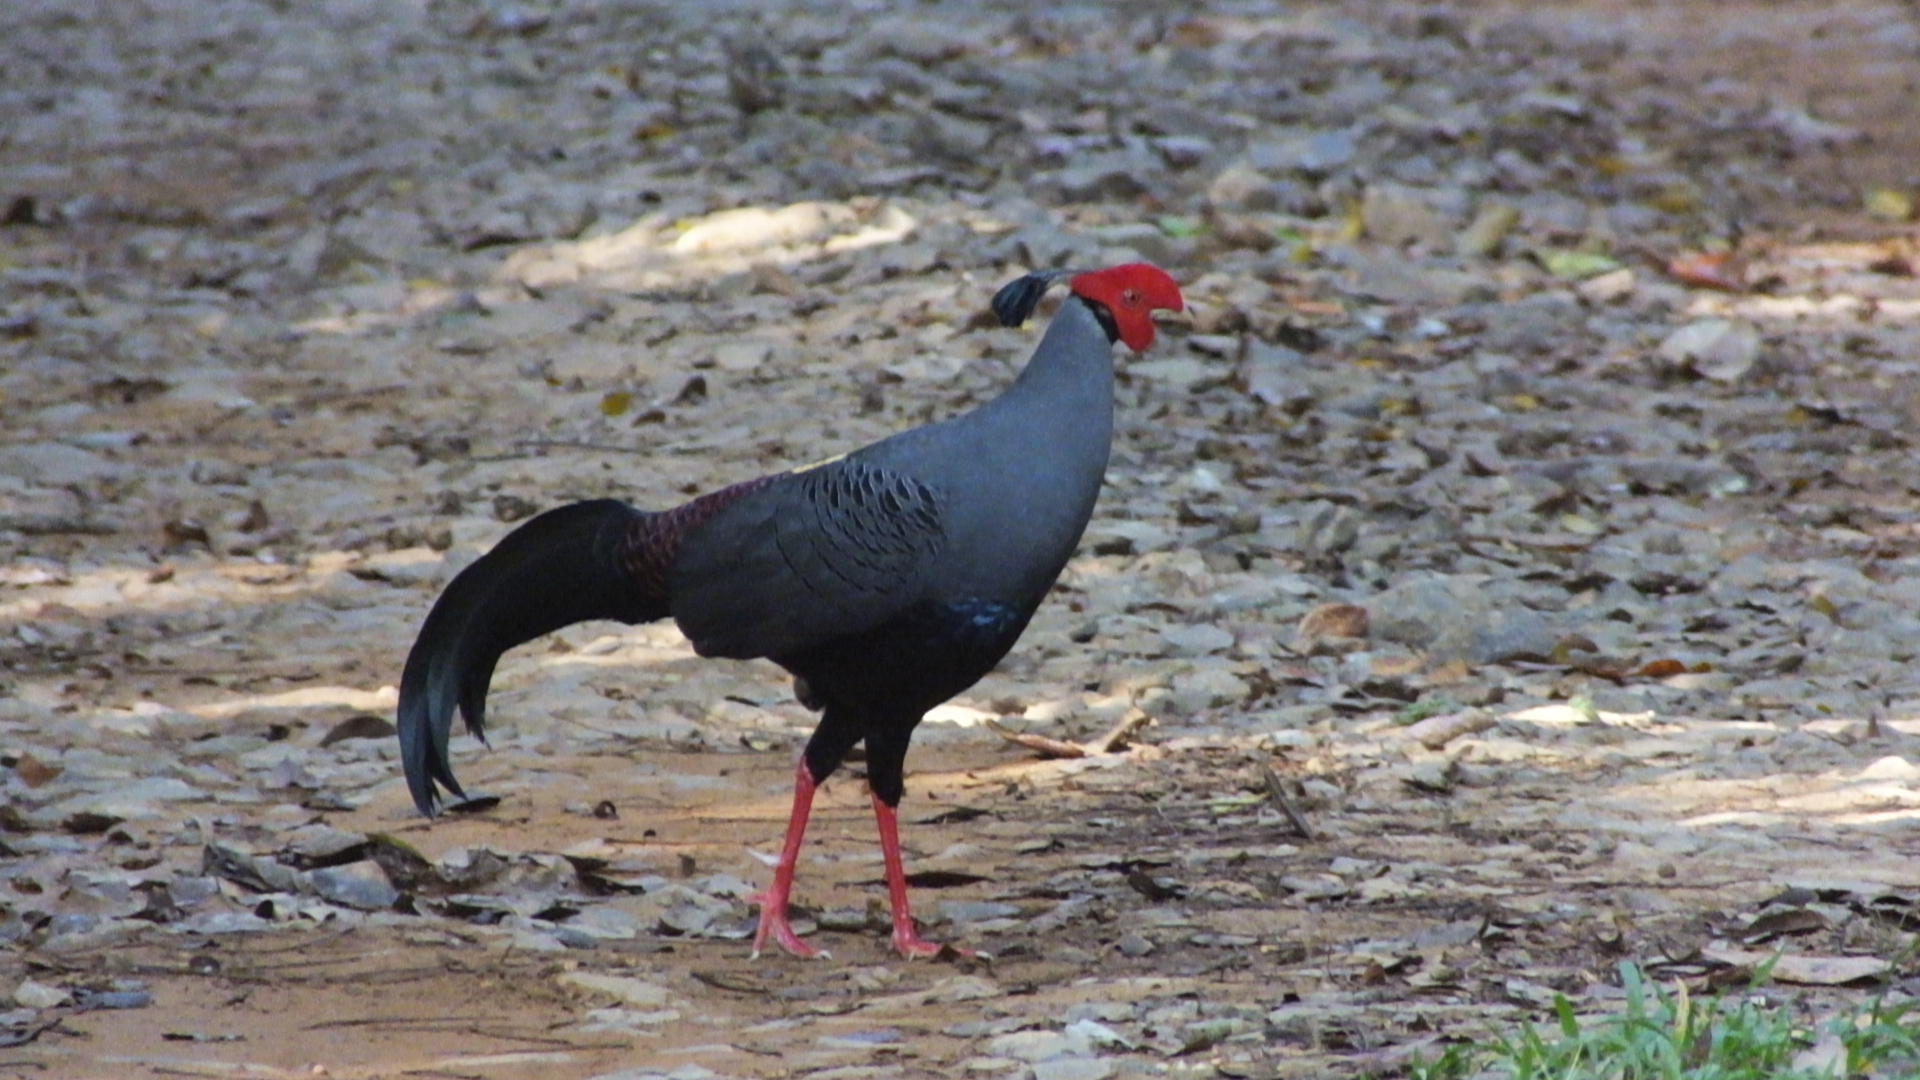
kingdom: Animalia
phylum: Chordata
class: Aves
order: Galliformes
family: Phasianidae
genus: Lophura
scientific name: Lophura diardi
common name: Siamese fireback
